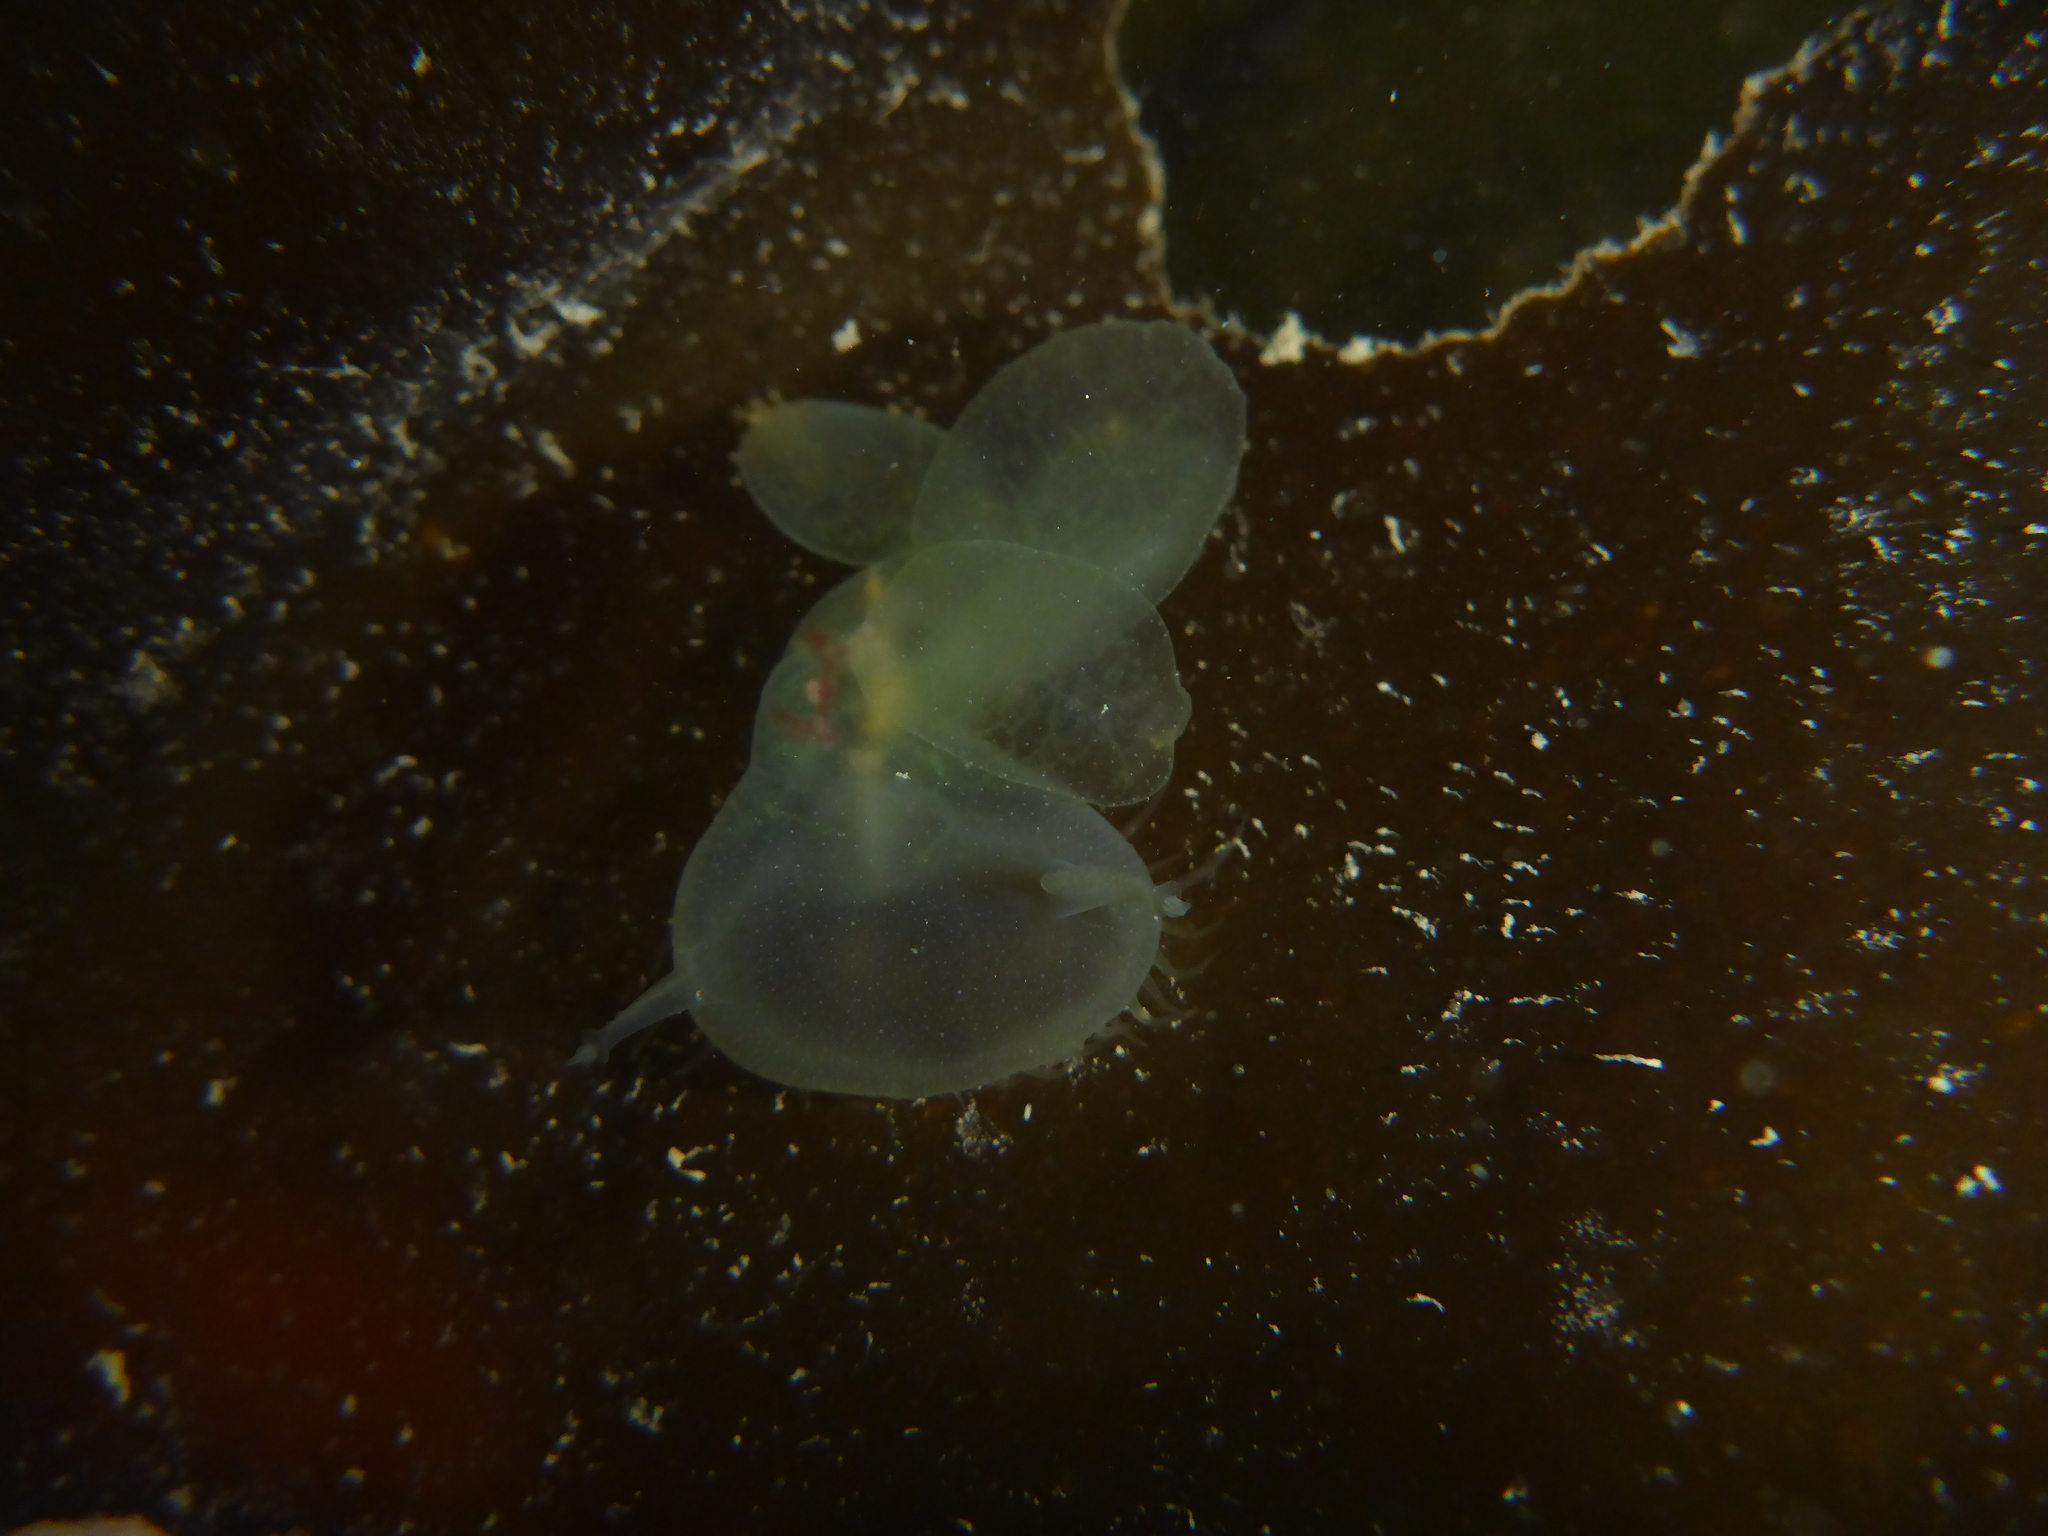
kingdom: Animalia
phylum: Mollusca
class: Gastropoda
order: Nudibranchia
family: Tethydidae
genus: Melibe
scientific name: Melibe leonina
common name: Lion nudibranch
